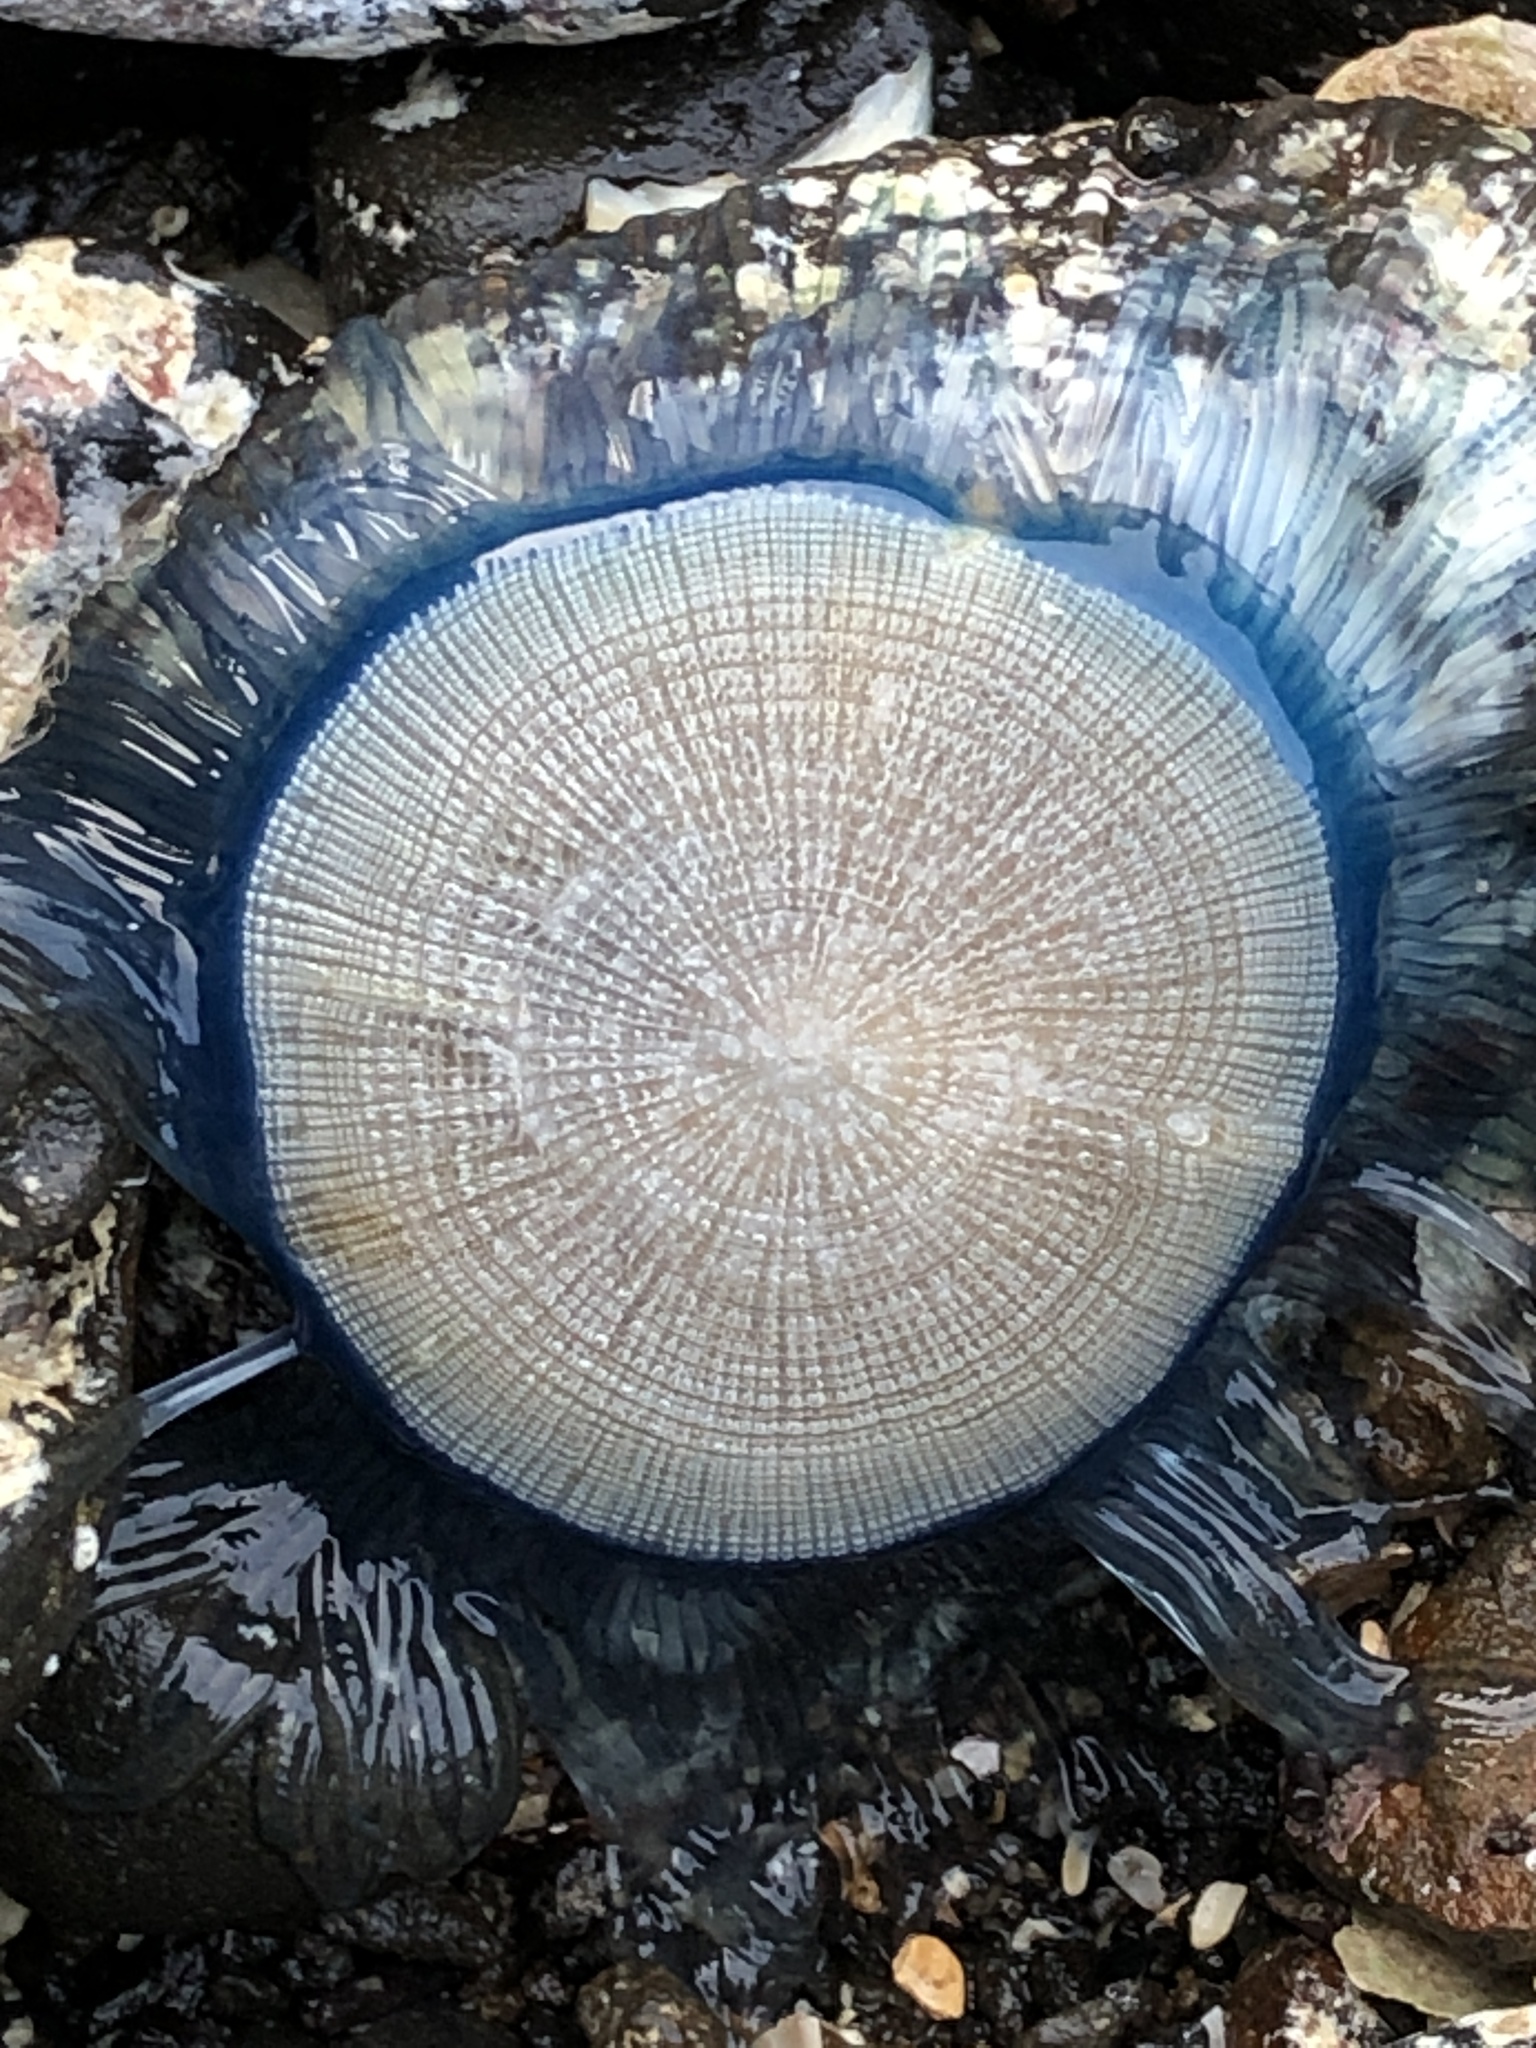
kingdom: Animalia
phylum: Cnidaria
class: Hydrozoa
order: Anthoathecata
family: Porpitidae
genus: Porpita
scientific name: Porpita porpita
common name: Blue button
